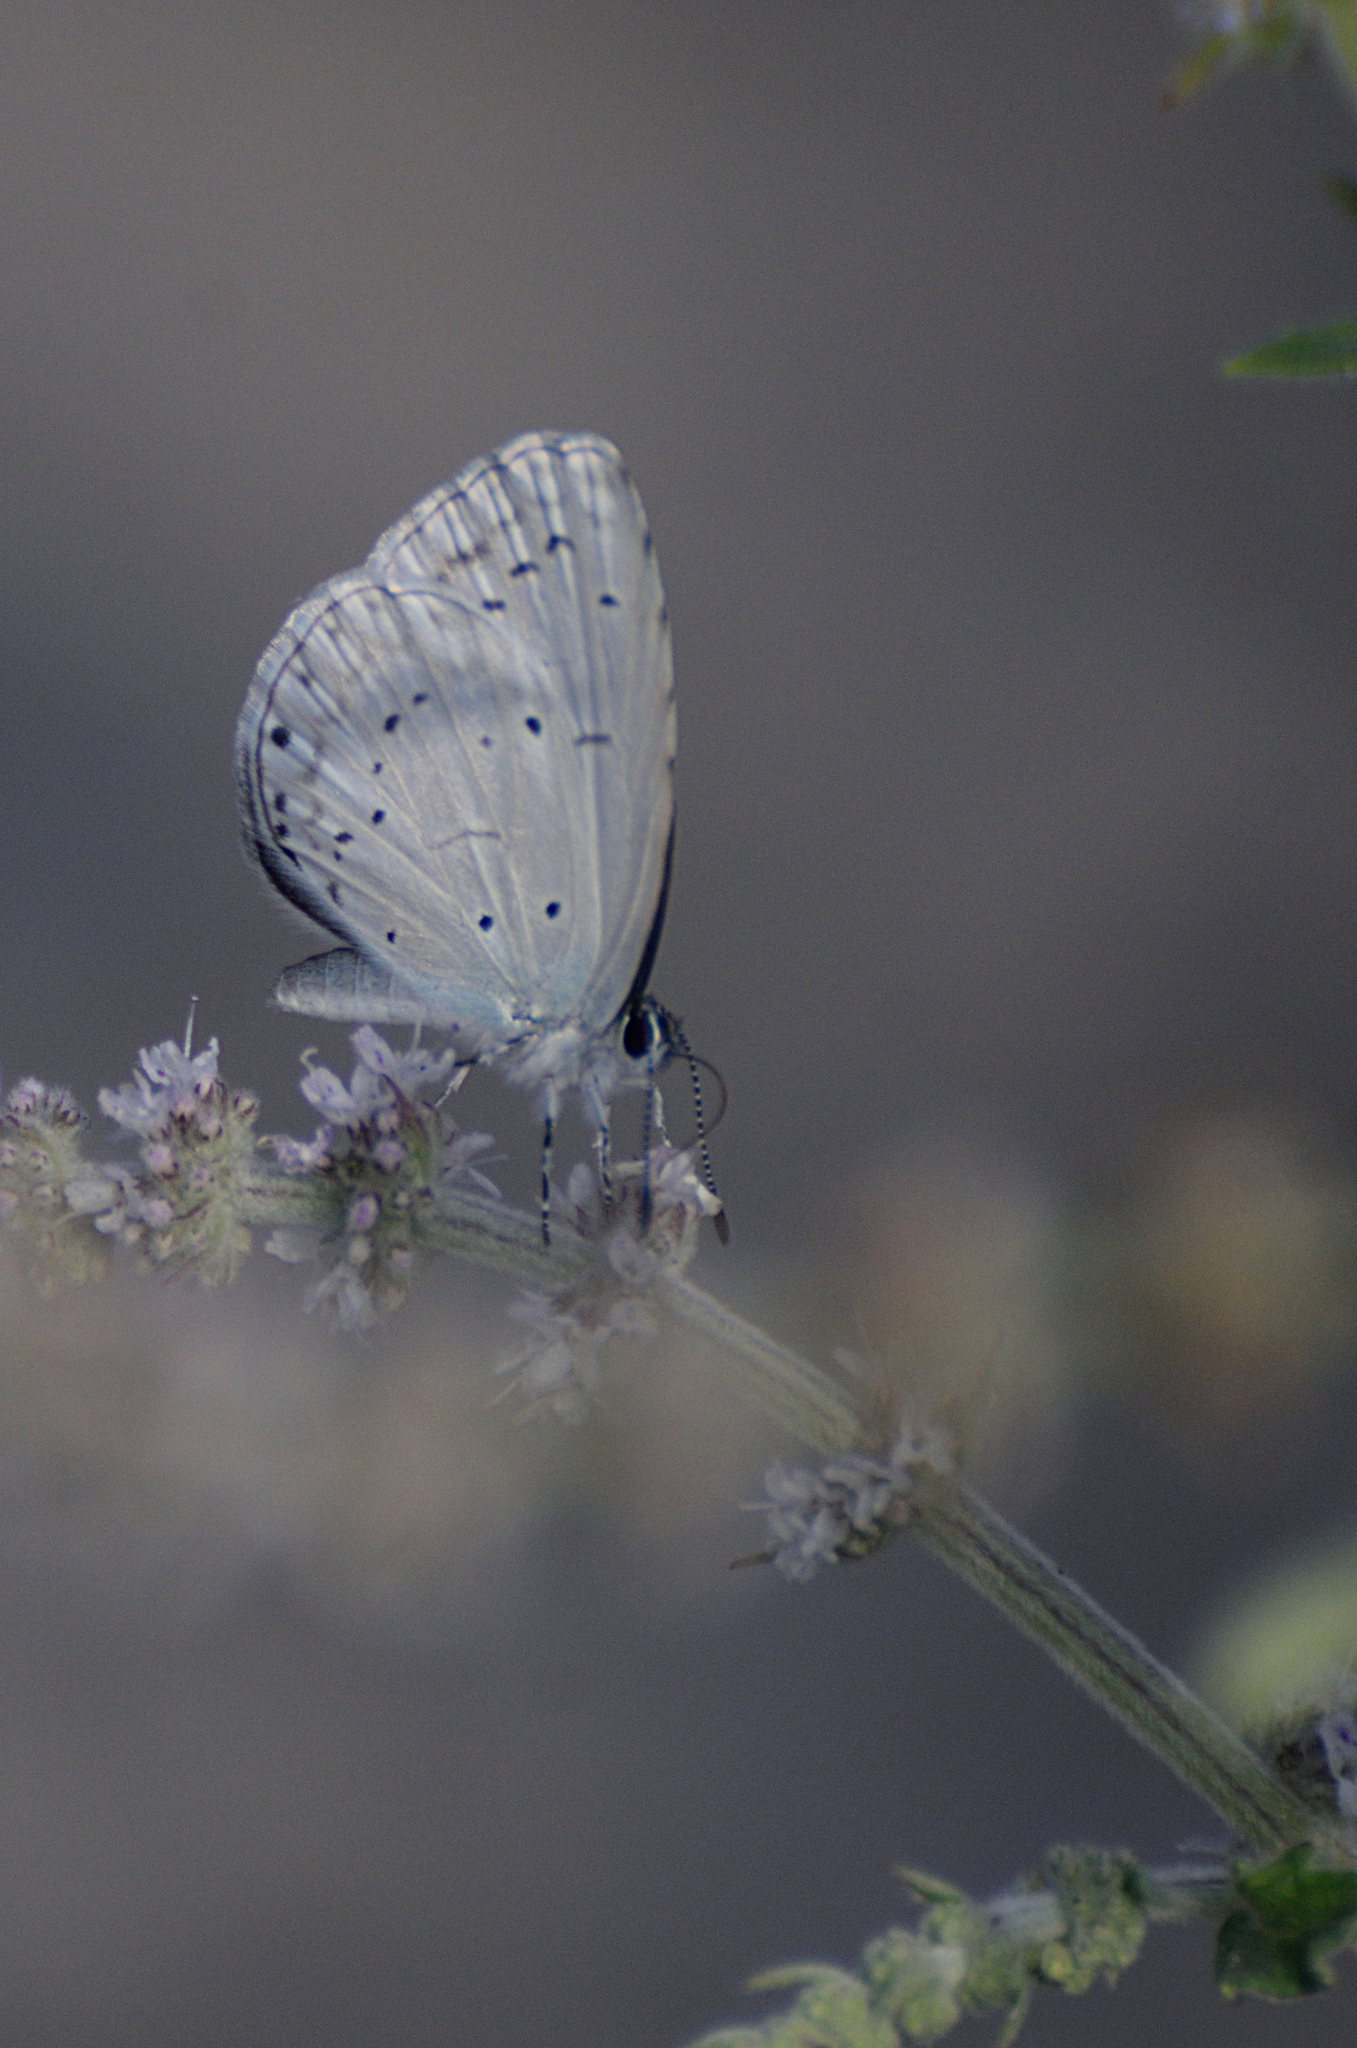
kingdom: Animalia
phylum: Arthropoda
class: Insecta
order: Lepidoptera
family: Lycaenidae
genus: Acytolepis
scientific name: Acytolepis puspa
